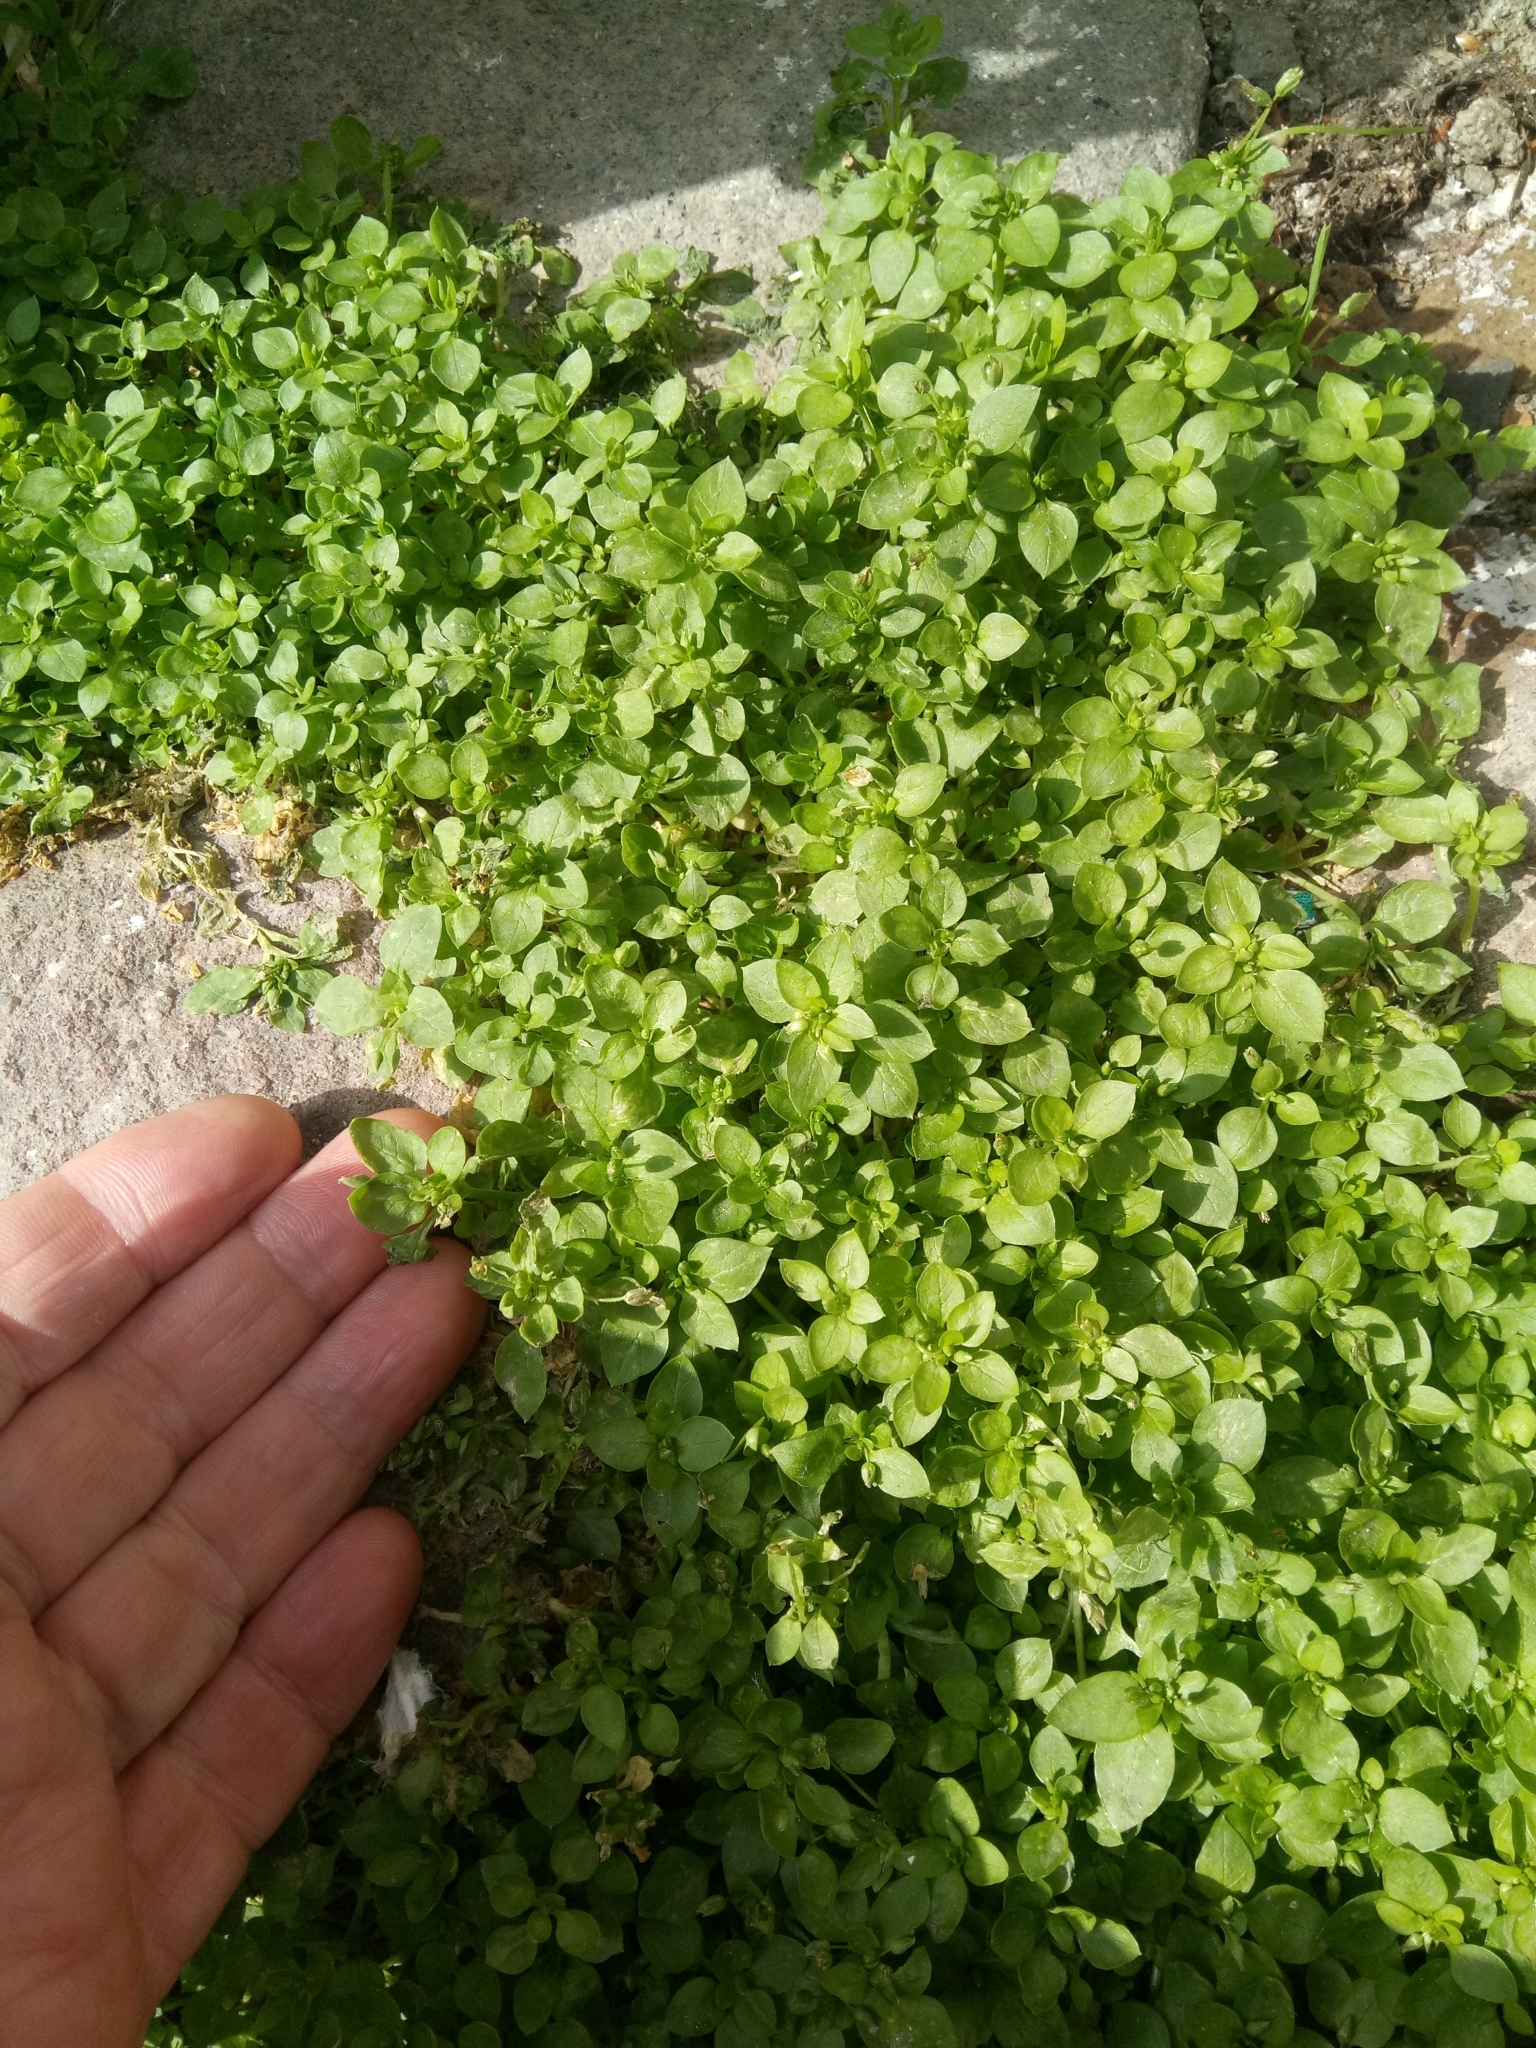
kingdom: Plantae
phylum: Tracheophyta
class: Magnoliopsida
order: Caryophyllales
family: Caryophyllaceae
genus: Stellaria
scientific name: Stellaria apetala
